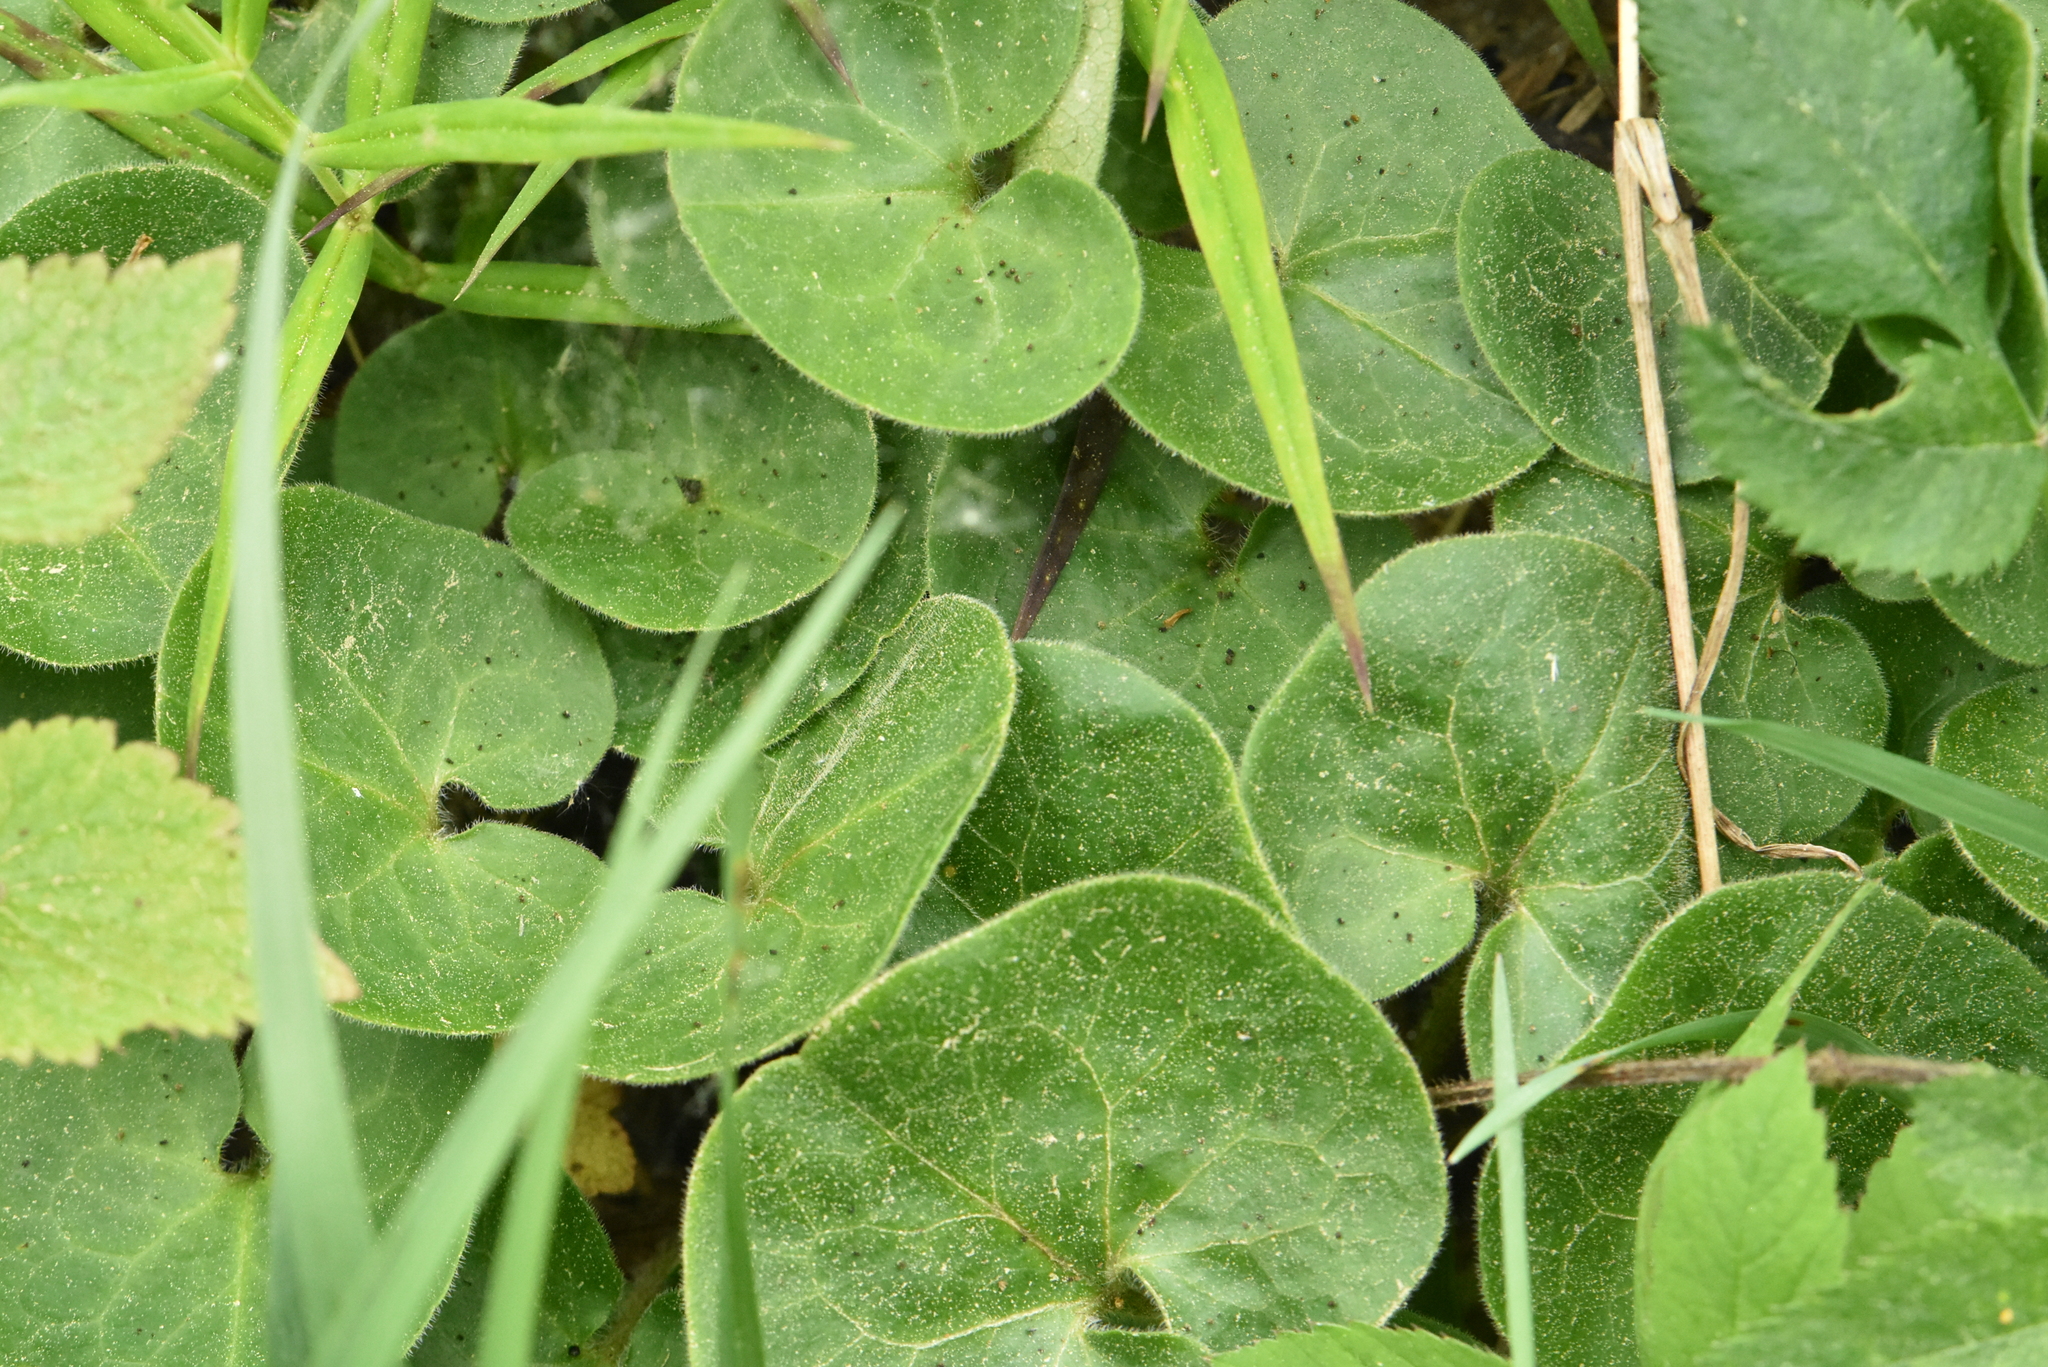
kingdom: Plantae
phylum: Tracheophyta
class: Magnoliopsida
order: Piperales
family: Aristolochiaceae
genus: Asarum
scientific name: Asarum europaeum
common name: Asarabacca
